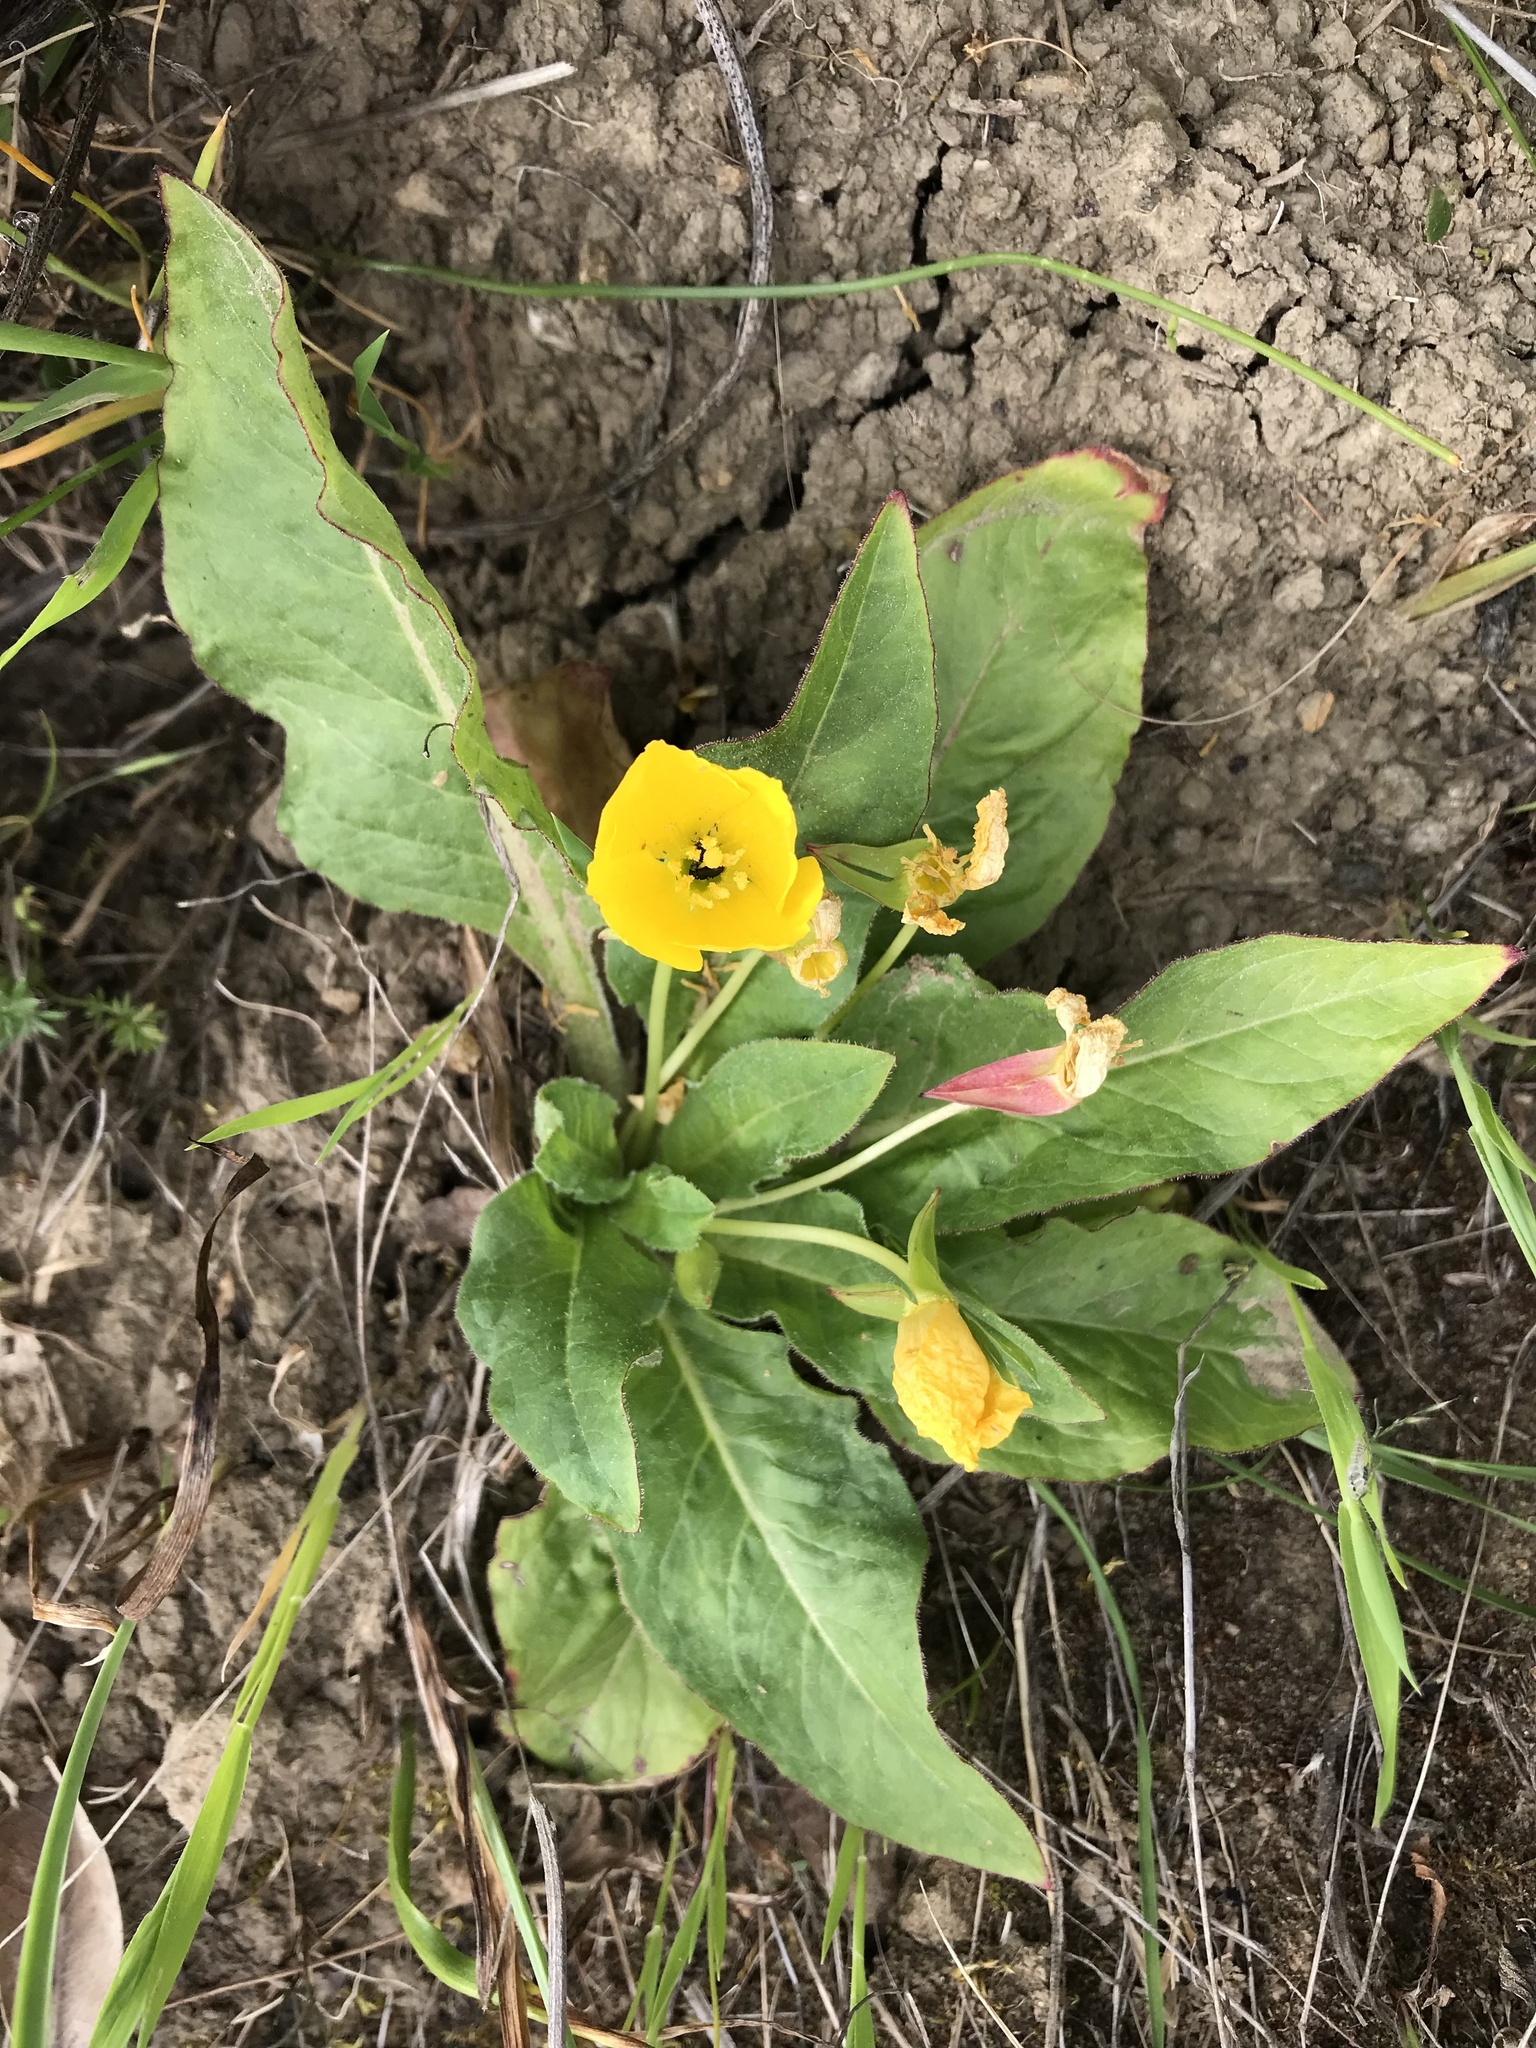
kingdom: Plantae
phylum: Tracheophyta
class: Magnoliopsida
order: Myrtales
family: Onagraceae
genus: Taraxia
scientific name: Taraxia ovata
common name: Goldeneggs
